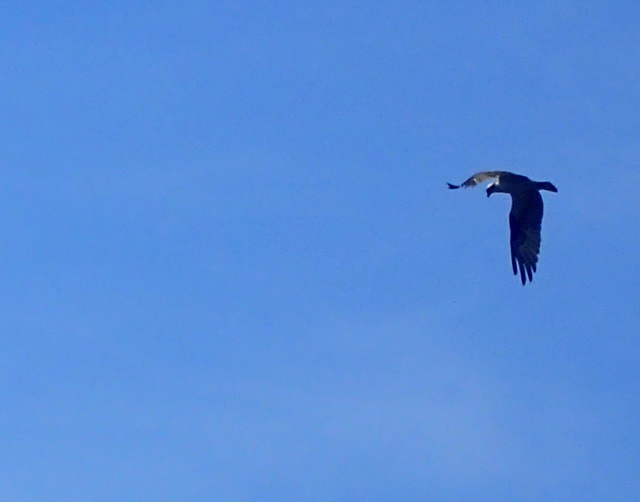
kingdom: Animalia
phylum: Chordata
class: Aves
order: Accipitriformes
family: Pandionidae
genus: Pandion
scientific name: Pandion haliaetus
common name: Osprey
